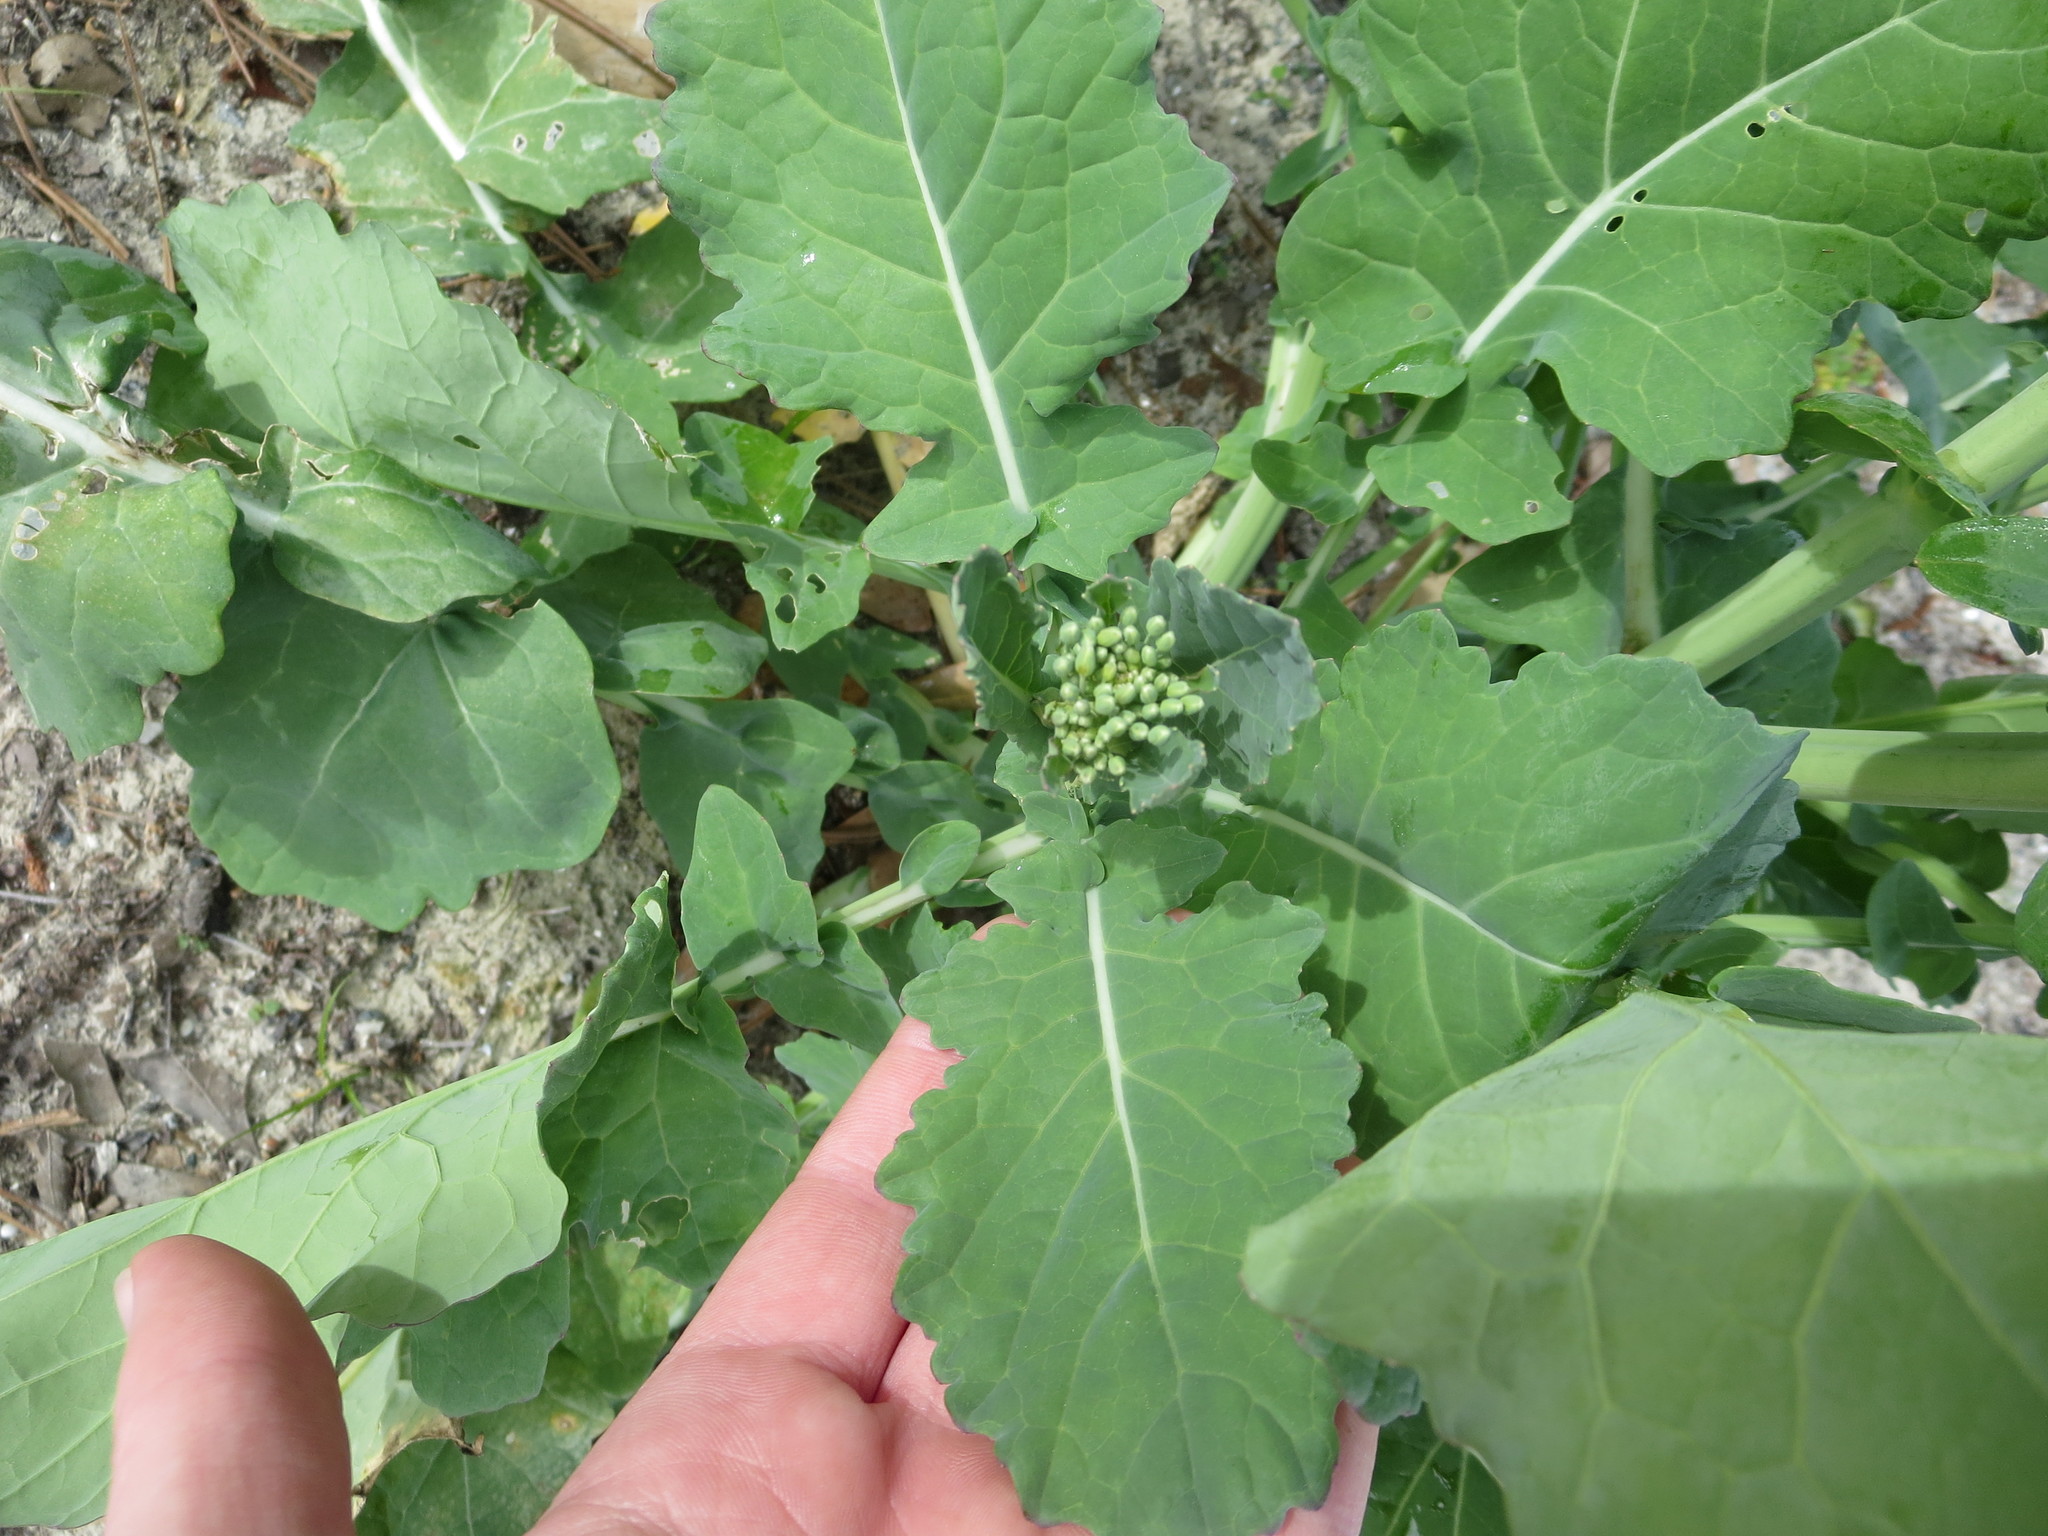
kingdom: Plantae
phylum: Tracheophyta
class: Magnoliopsida
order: Brassicales
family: Brassicaceae
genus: Brassica
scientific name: Brassica oleracea
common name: Cabbage
